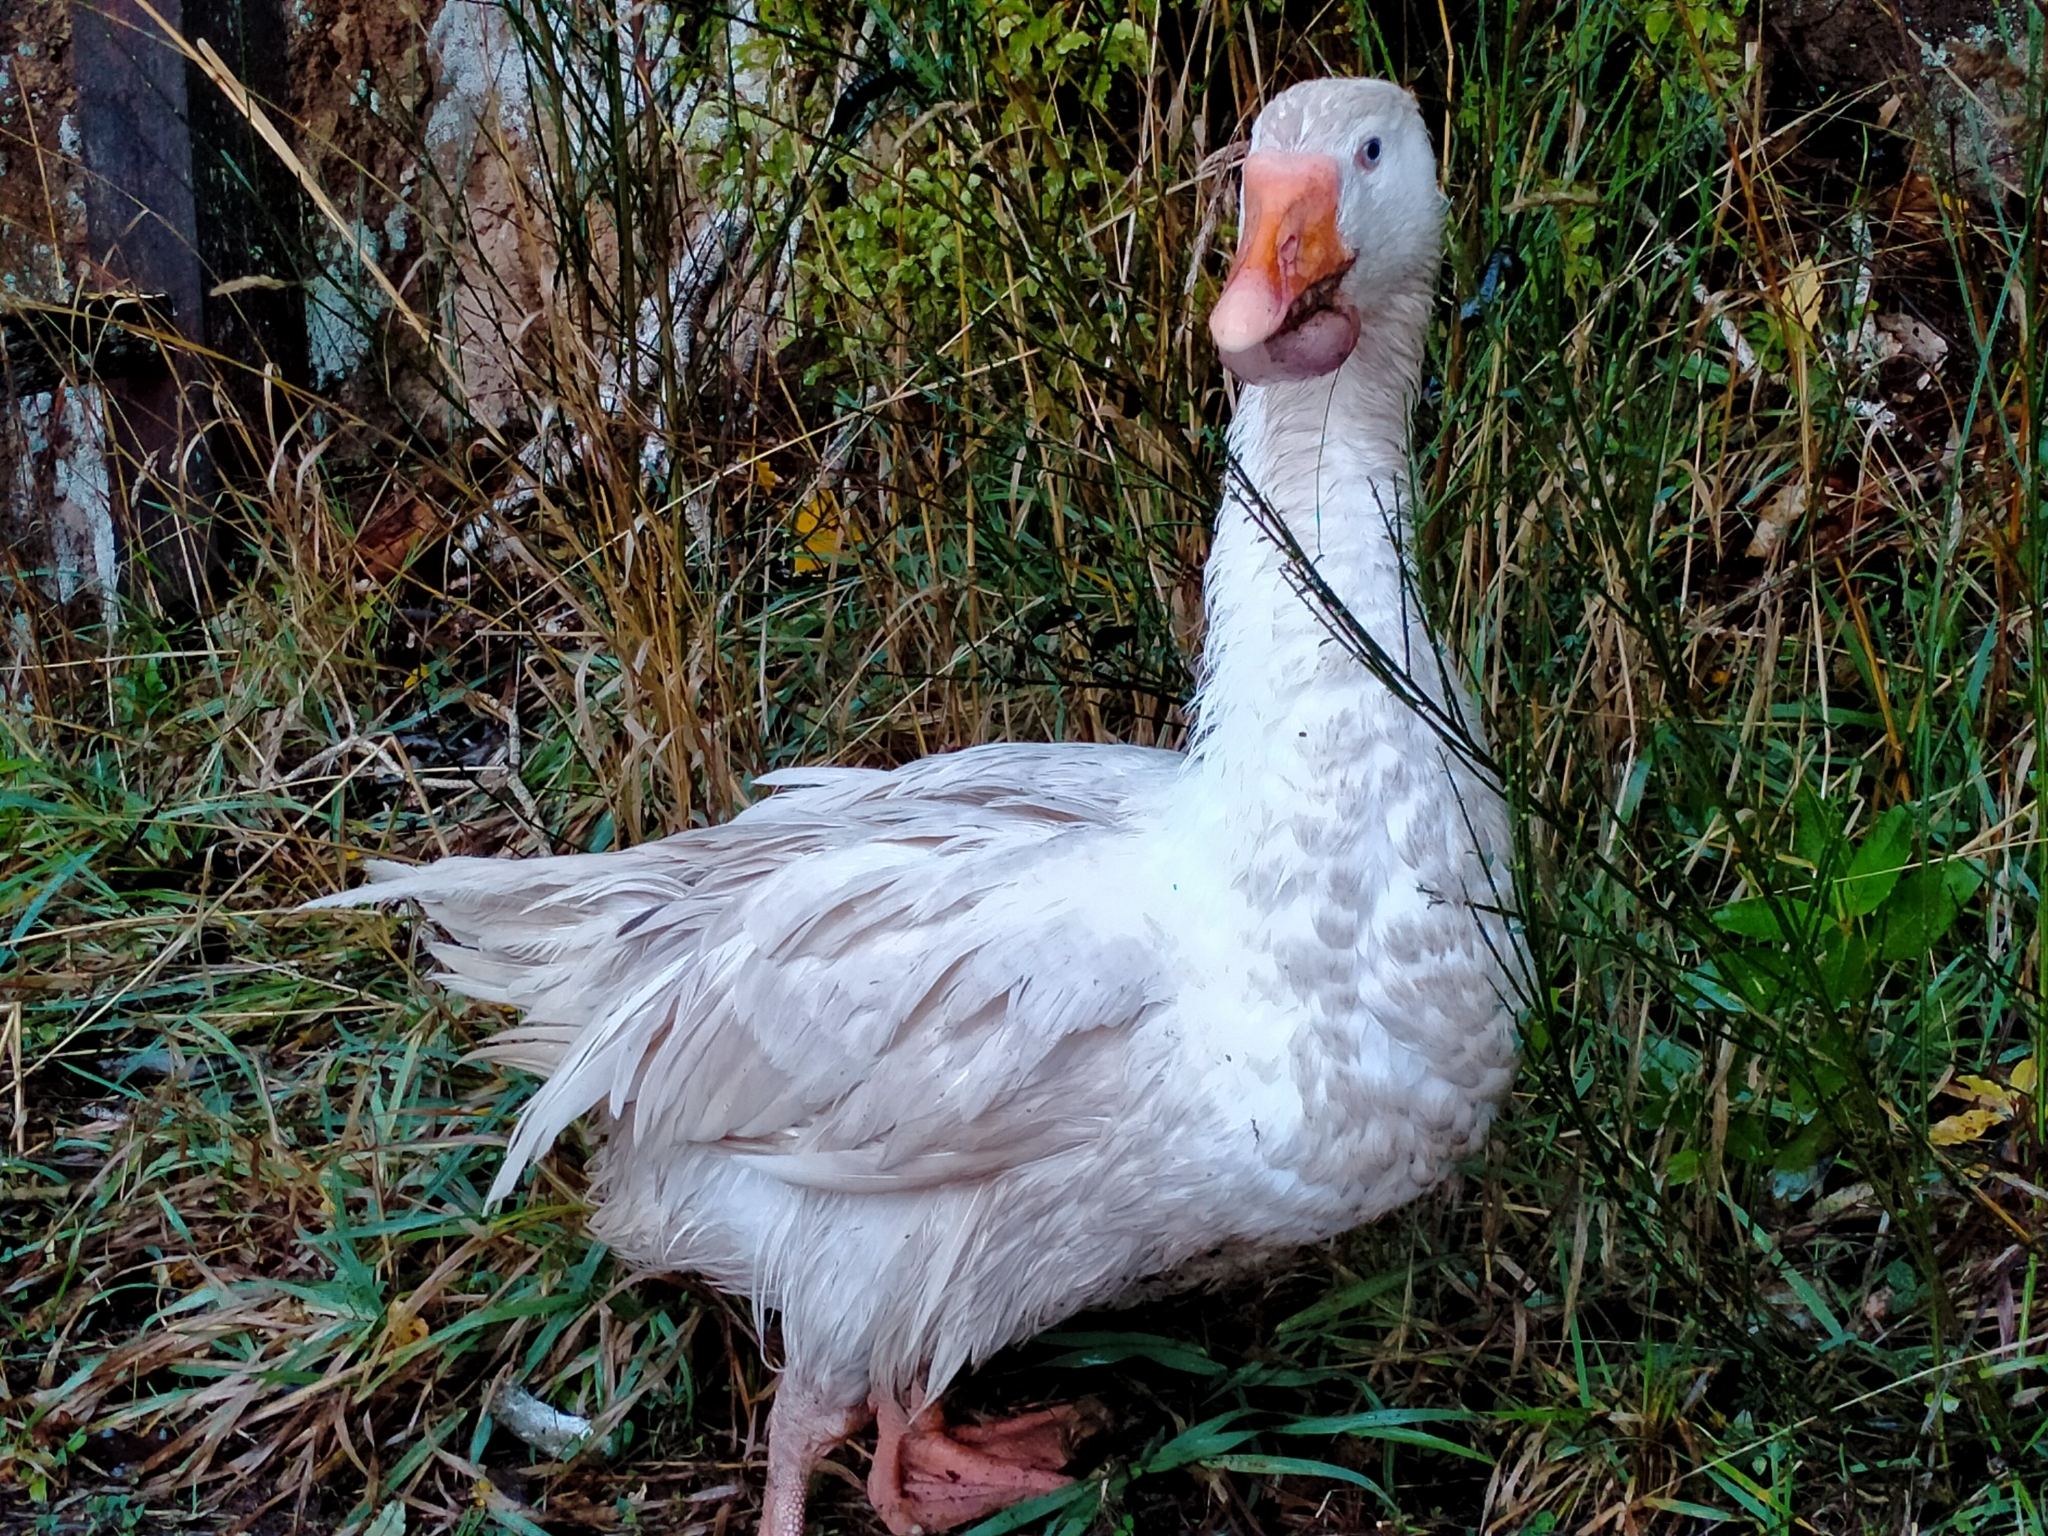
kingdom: Animalia
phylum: Chordata
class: Aves
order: Anseriformes
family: Anatidae
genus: Anser
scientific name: Anser anser
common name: Greylag goose
